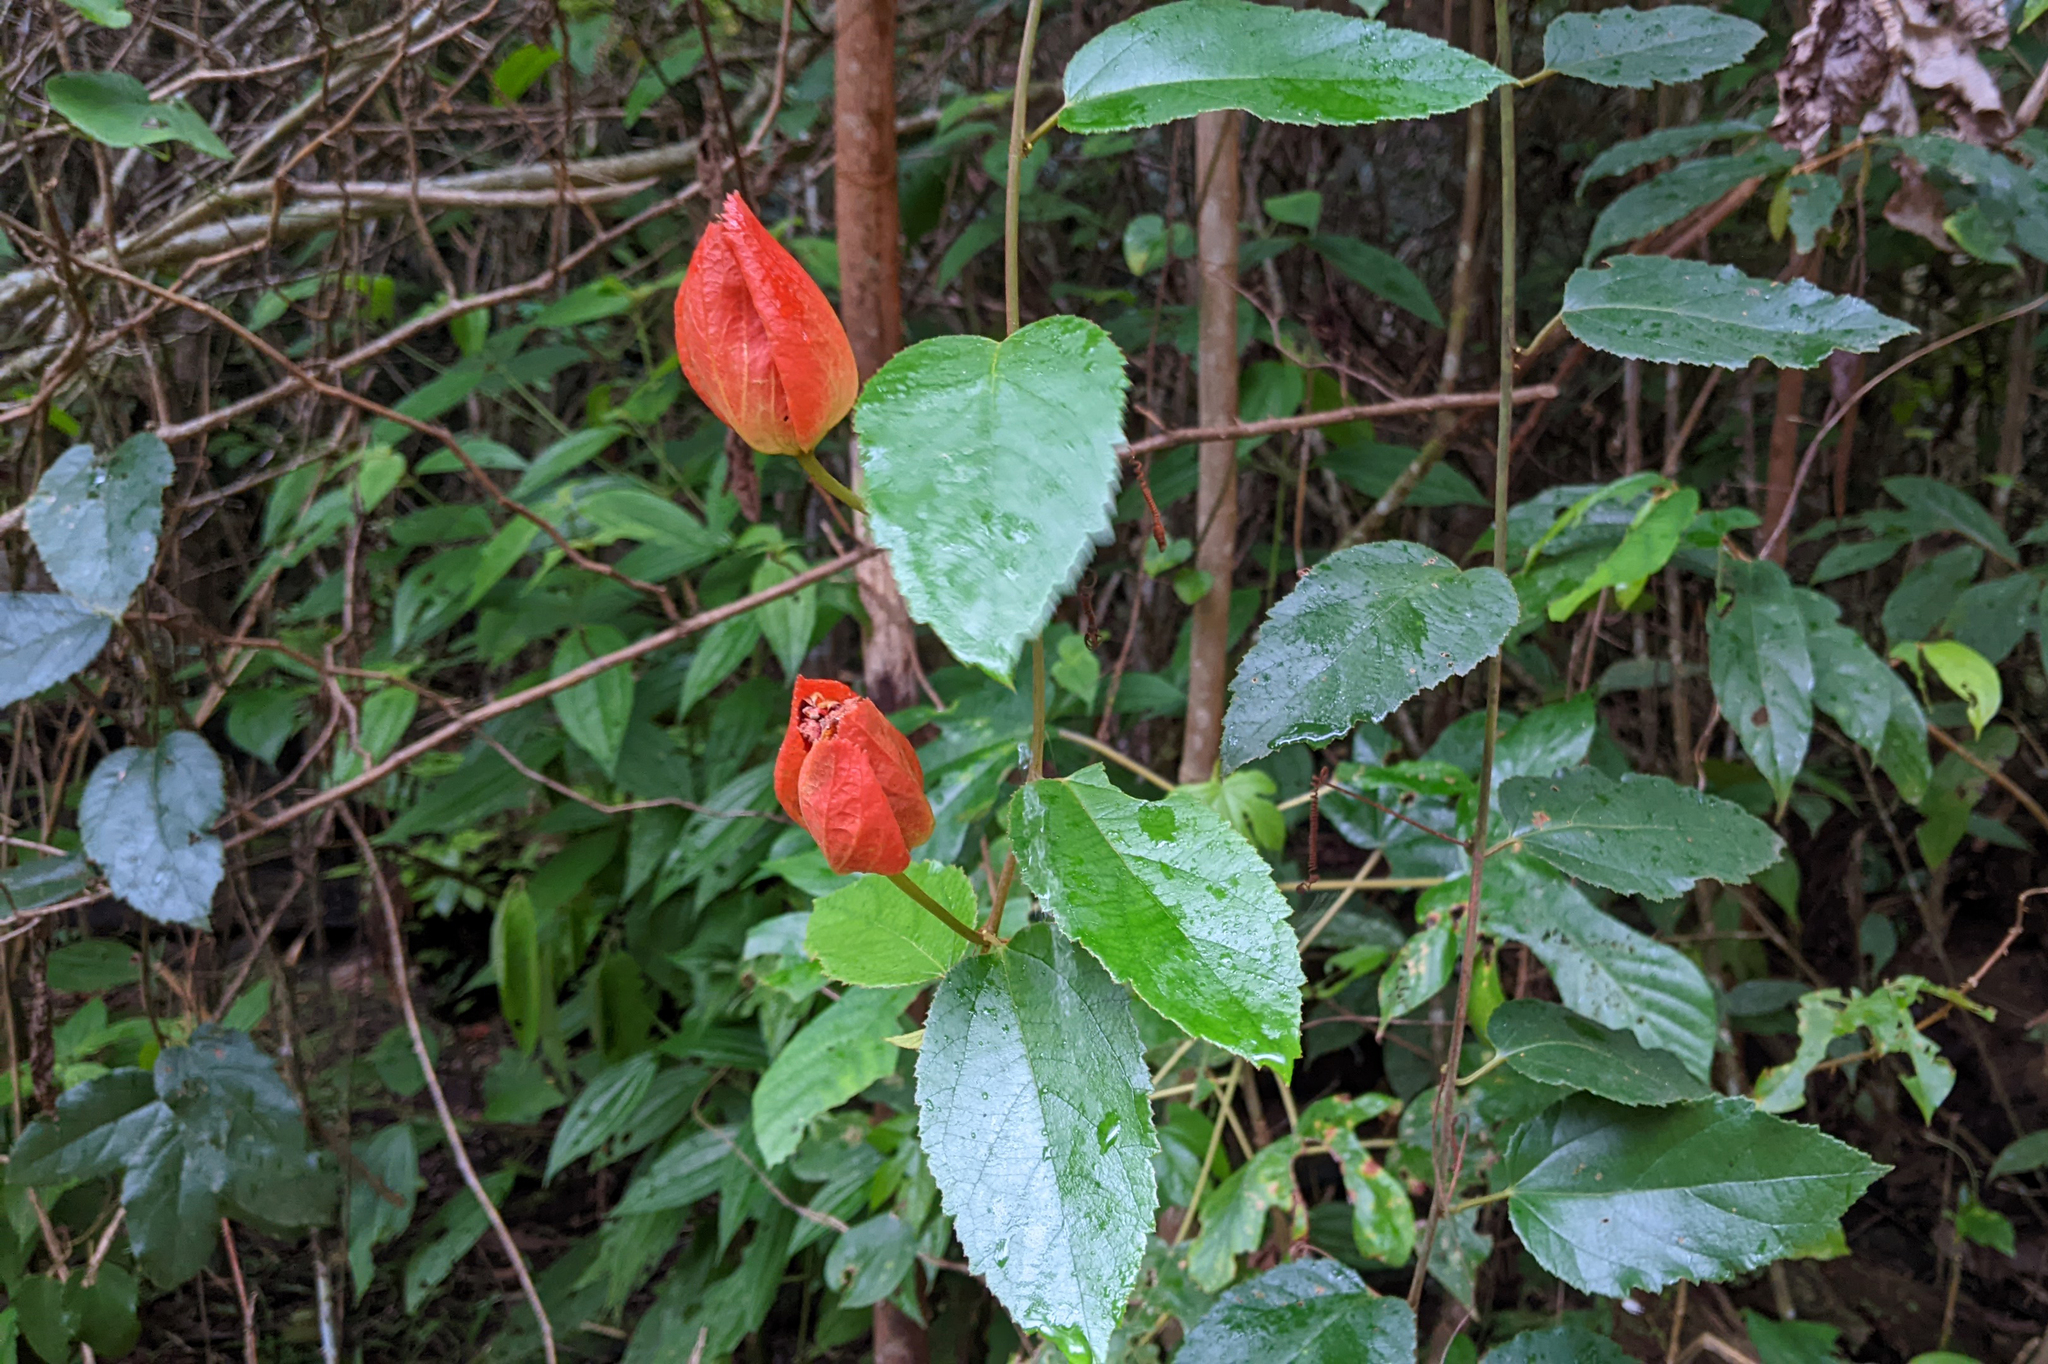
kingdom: Plantae
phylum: Tracheophyta
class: Magnoliopsida
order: Malpighiales
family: Passifloraceae
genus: Passiflora
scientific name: Passiflora coccinea
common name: Scarlet passionflower
